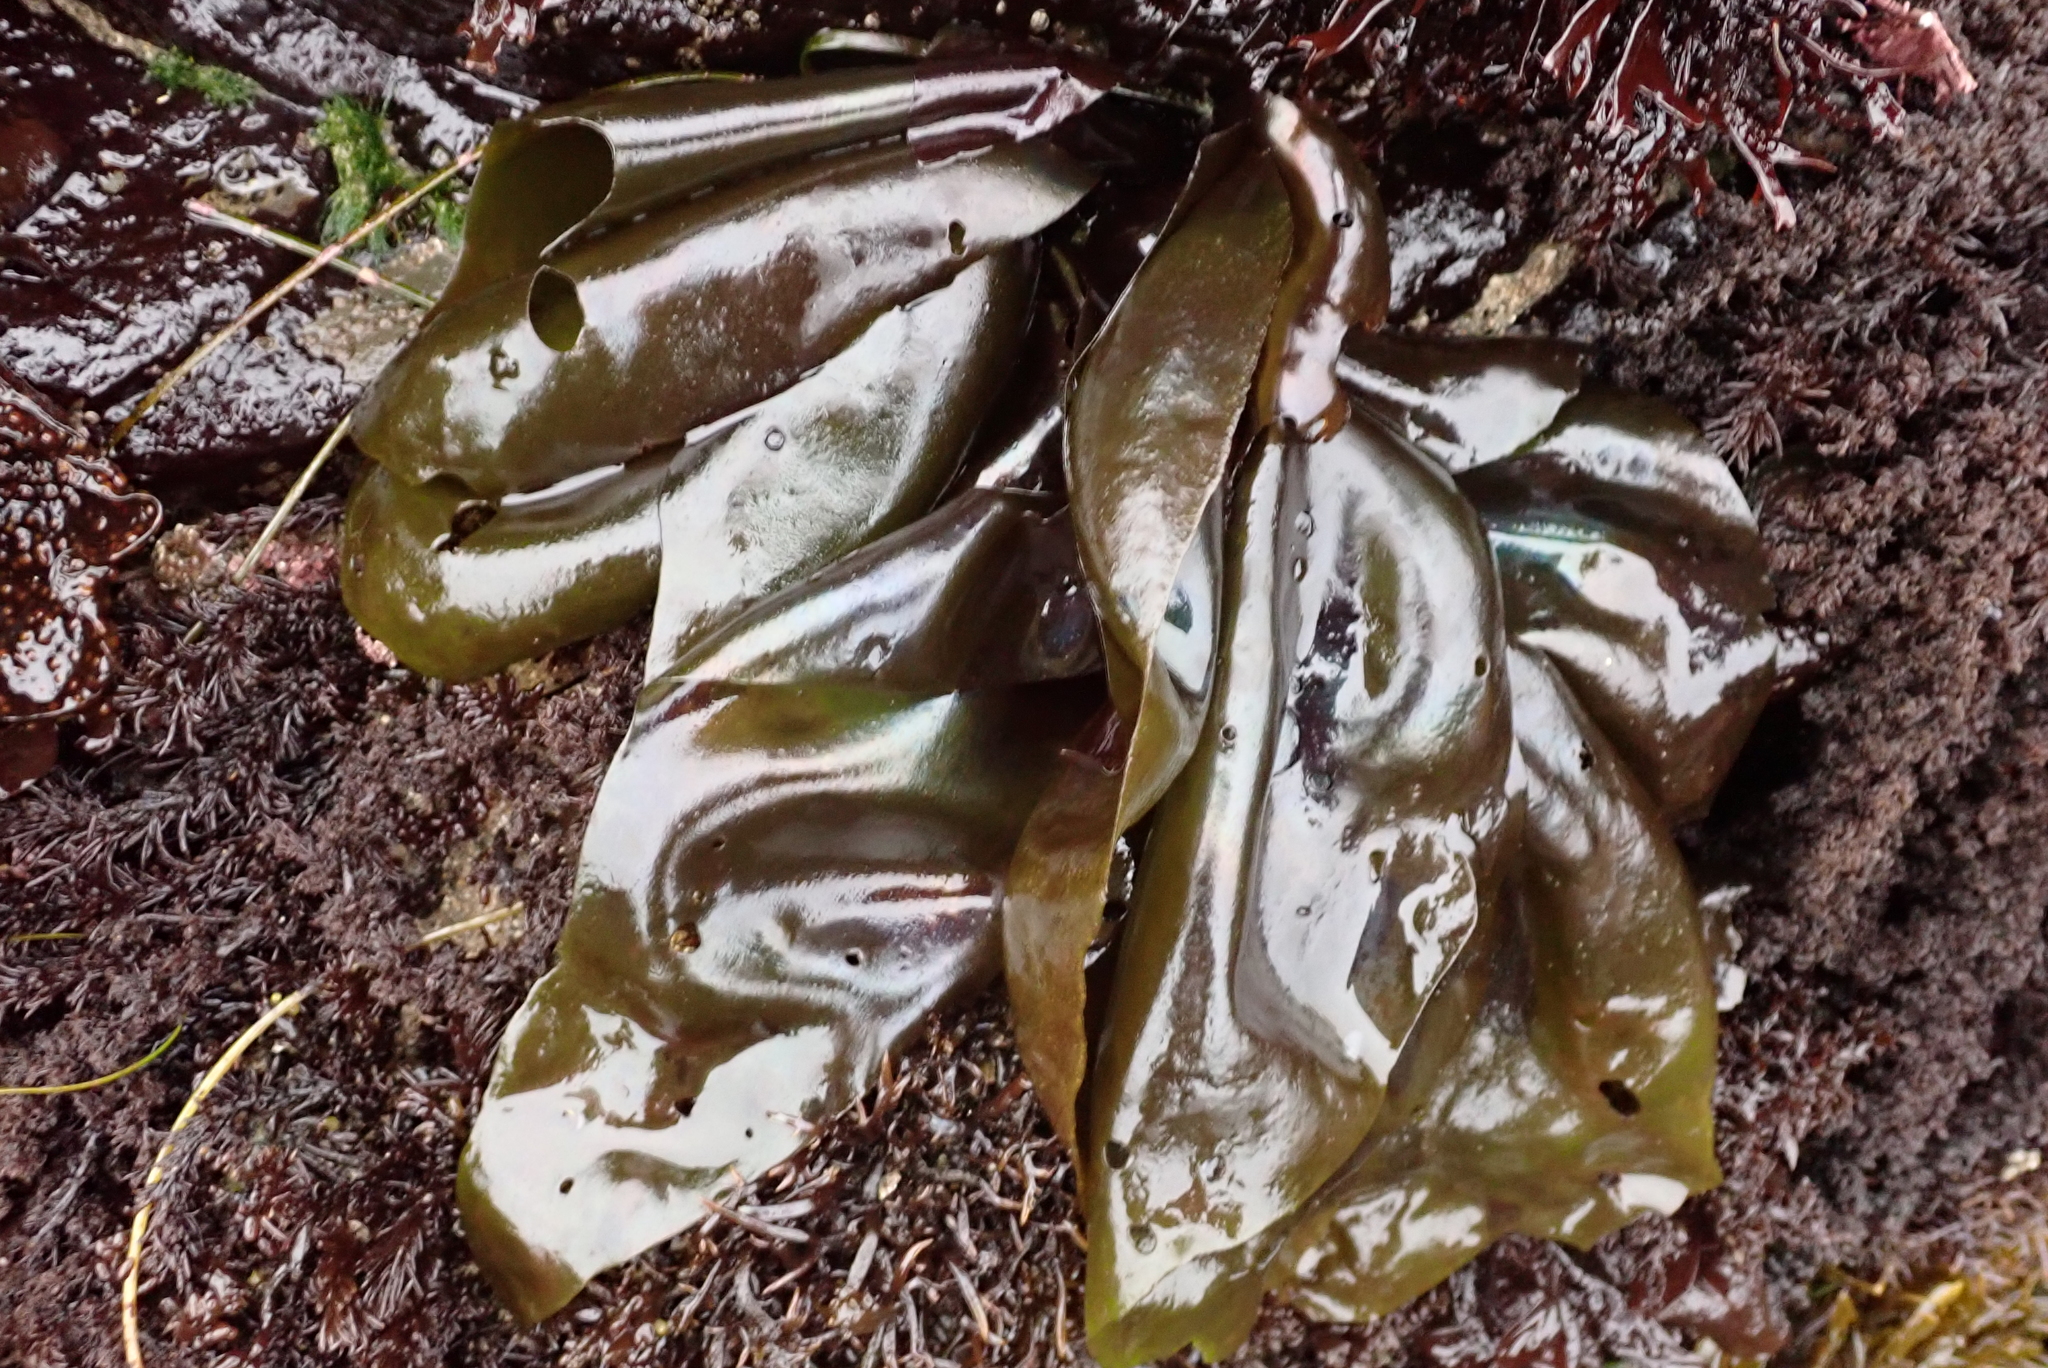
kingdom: Plantae
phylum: Rhodophyta
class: Florideophyceae
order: Gigartinales
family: Gigartinaceae
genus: Mazzaella
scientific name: Mazzaella flaccida
